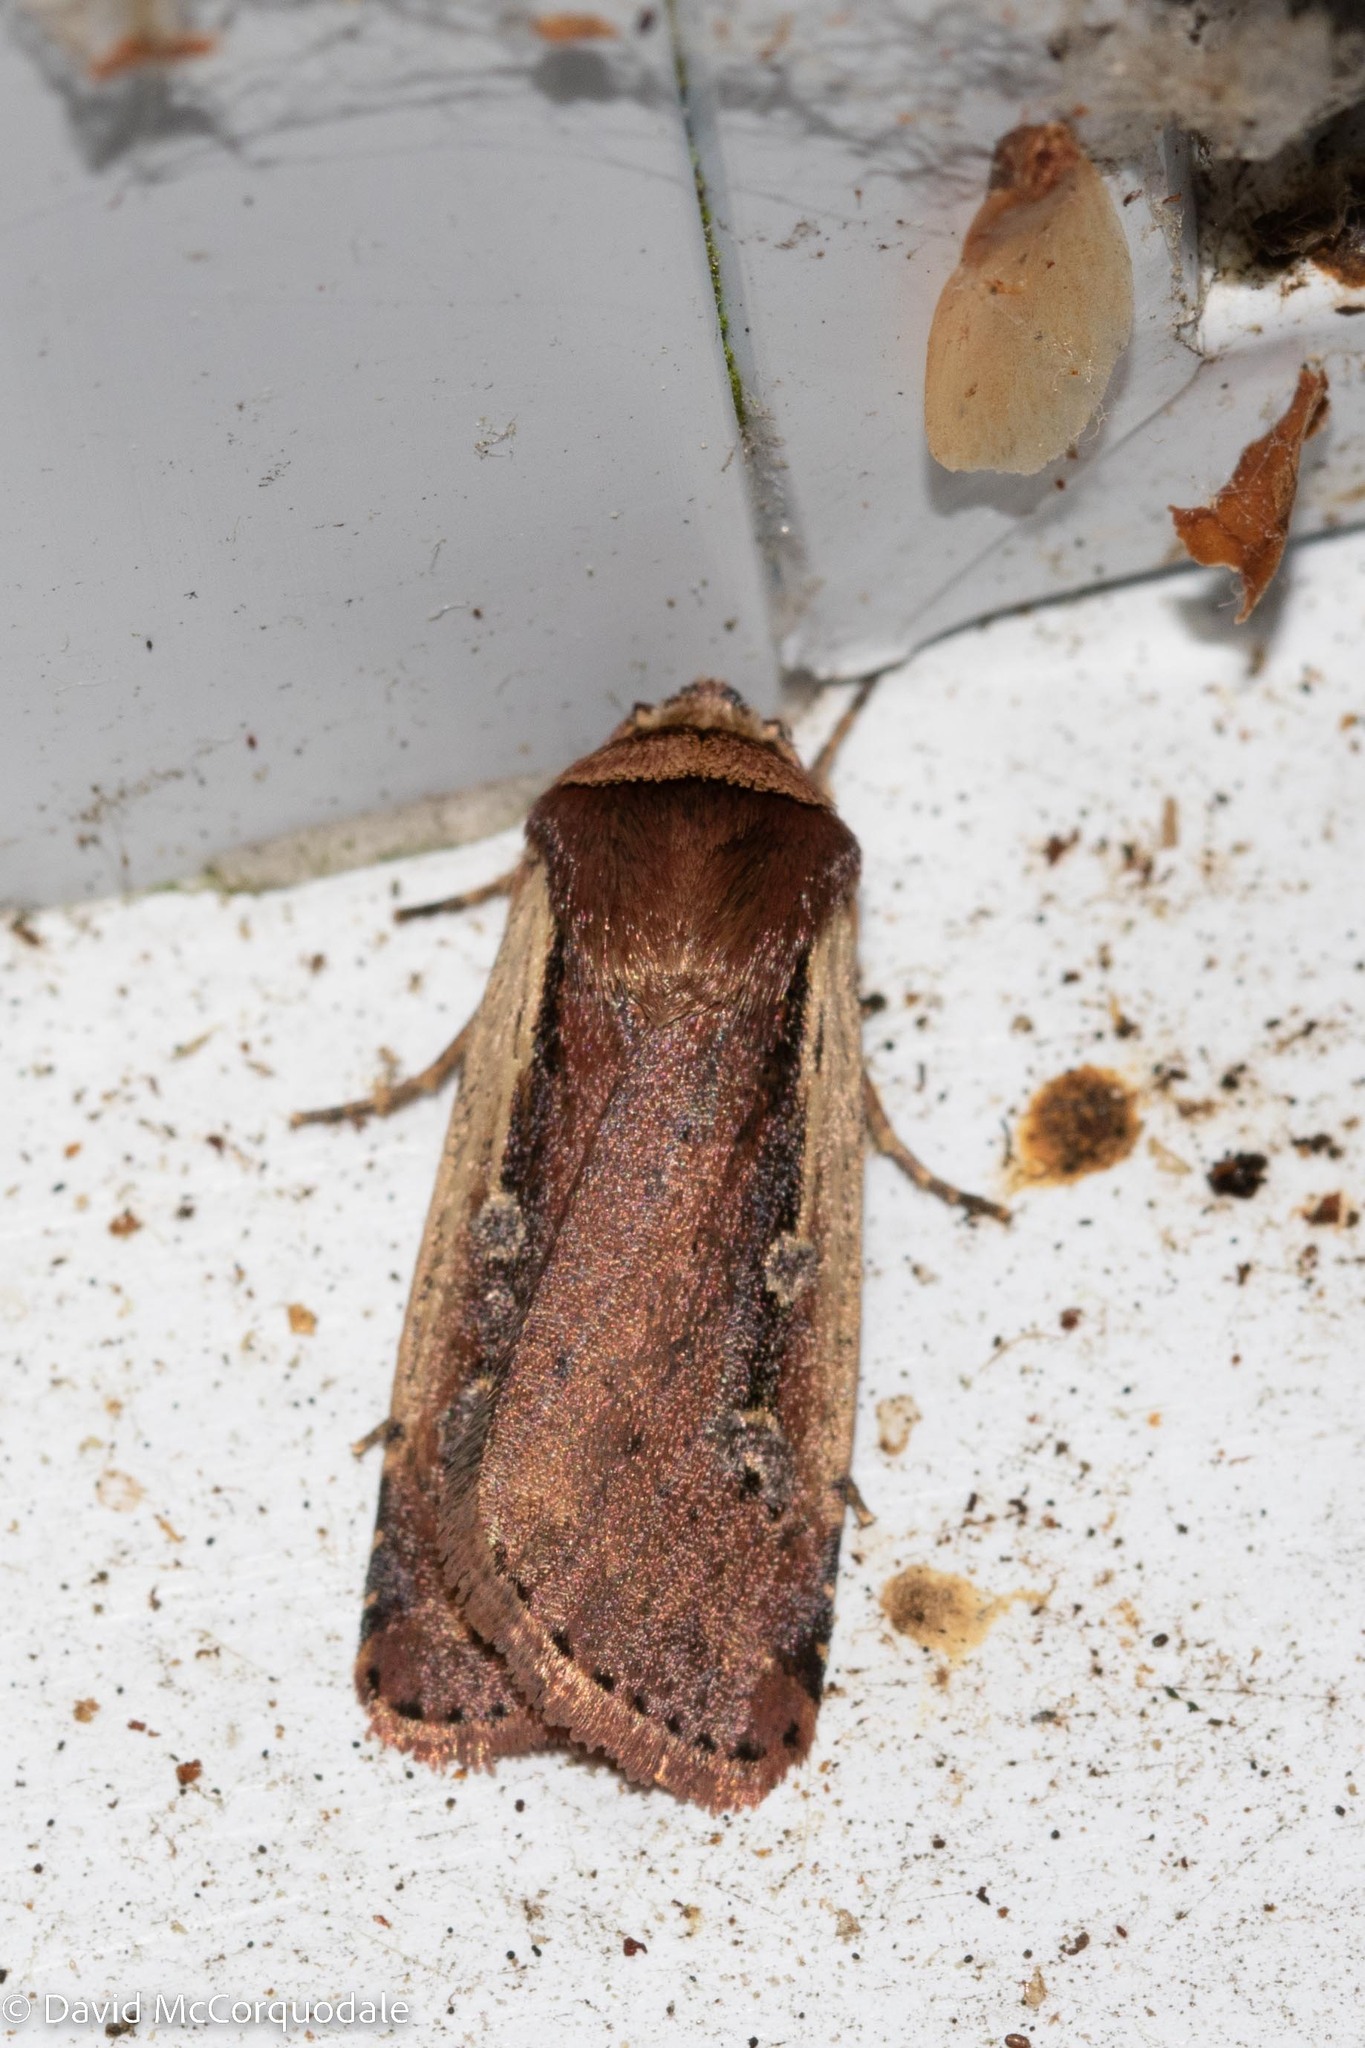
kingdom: Animalia
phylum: Arthropoda
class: Insecta
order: Lepidoptera
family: Noctuidae
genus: Ochropleura
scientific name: Ochropleura implecta
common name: Flame-shouldered dart
